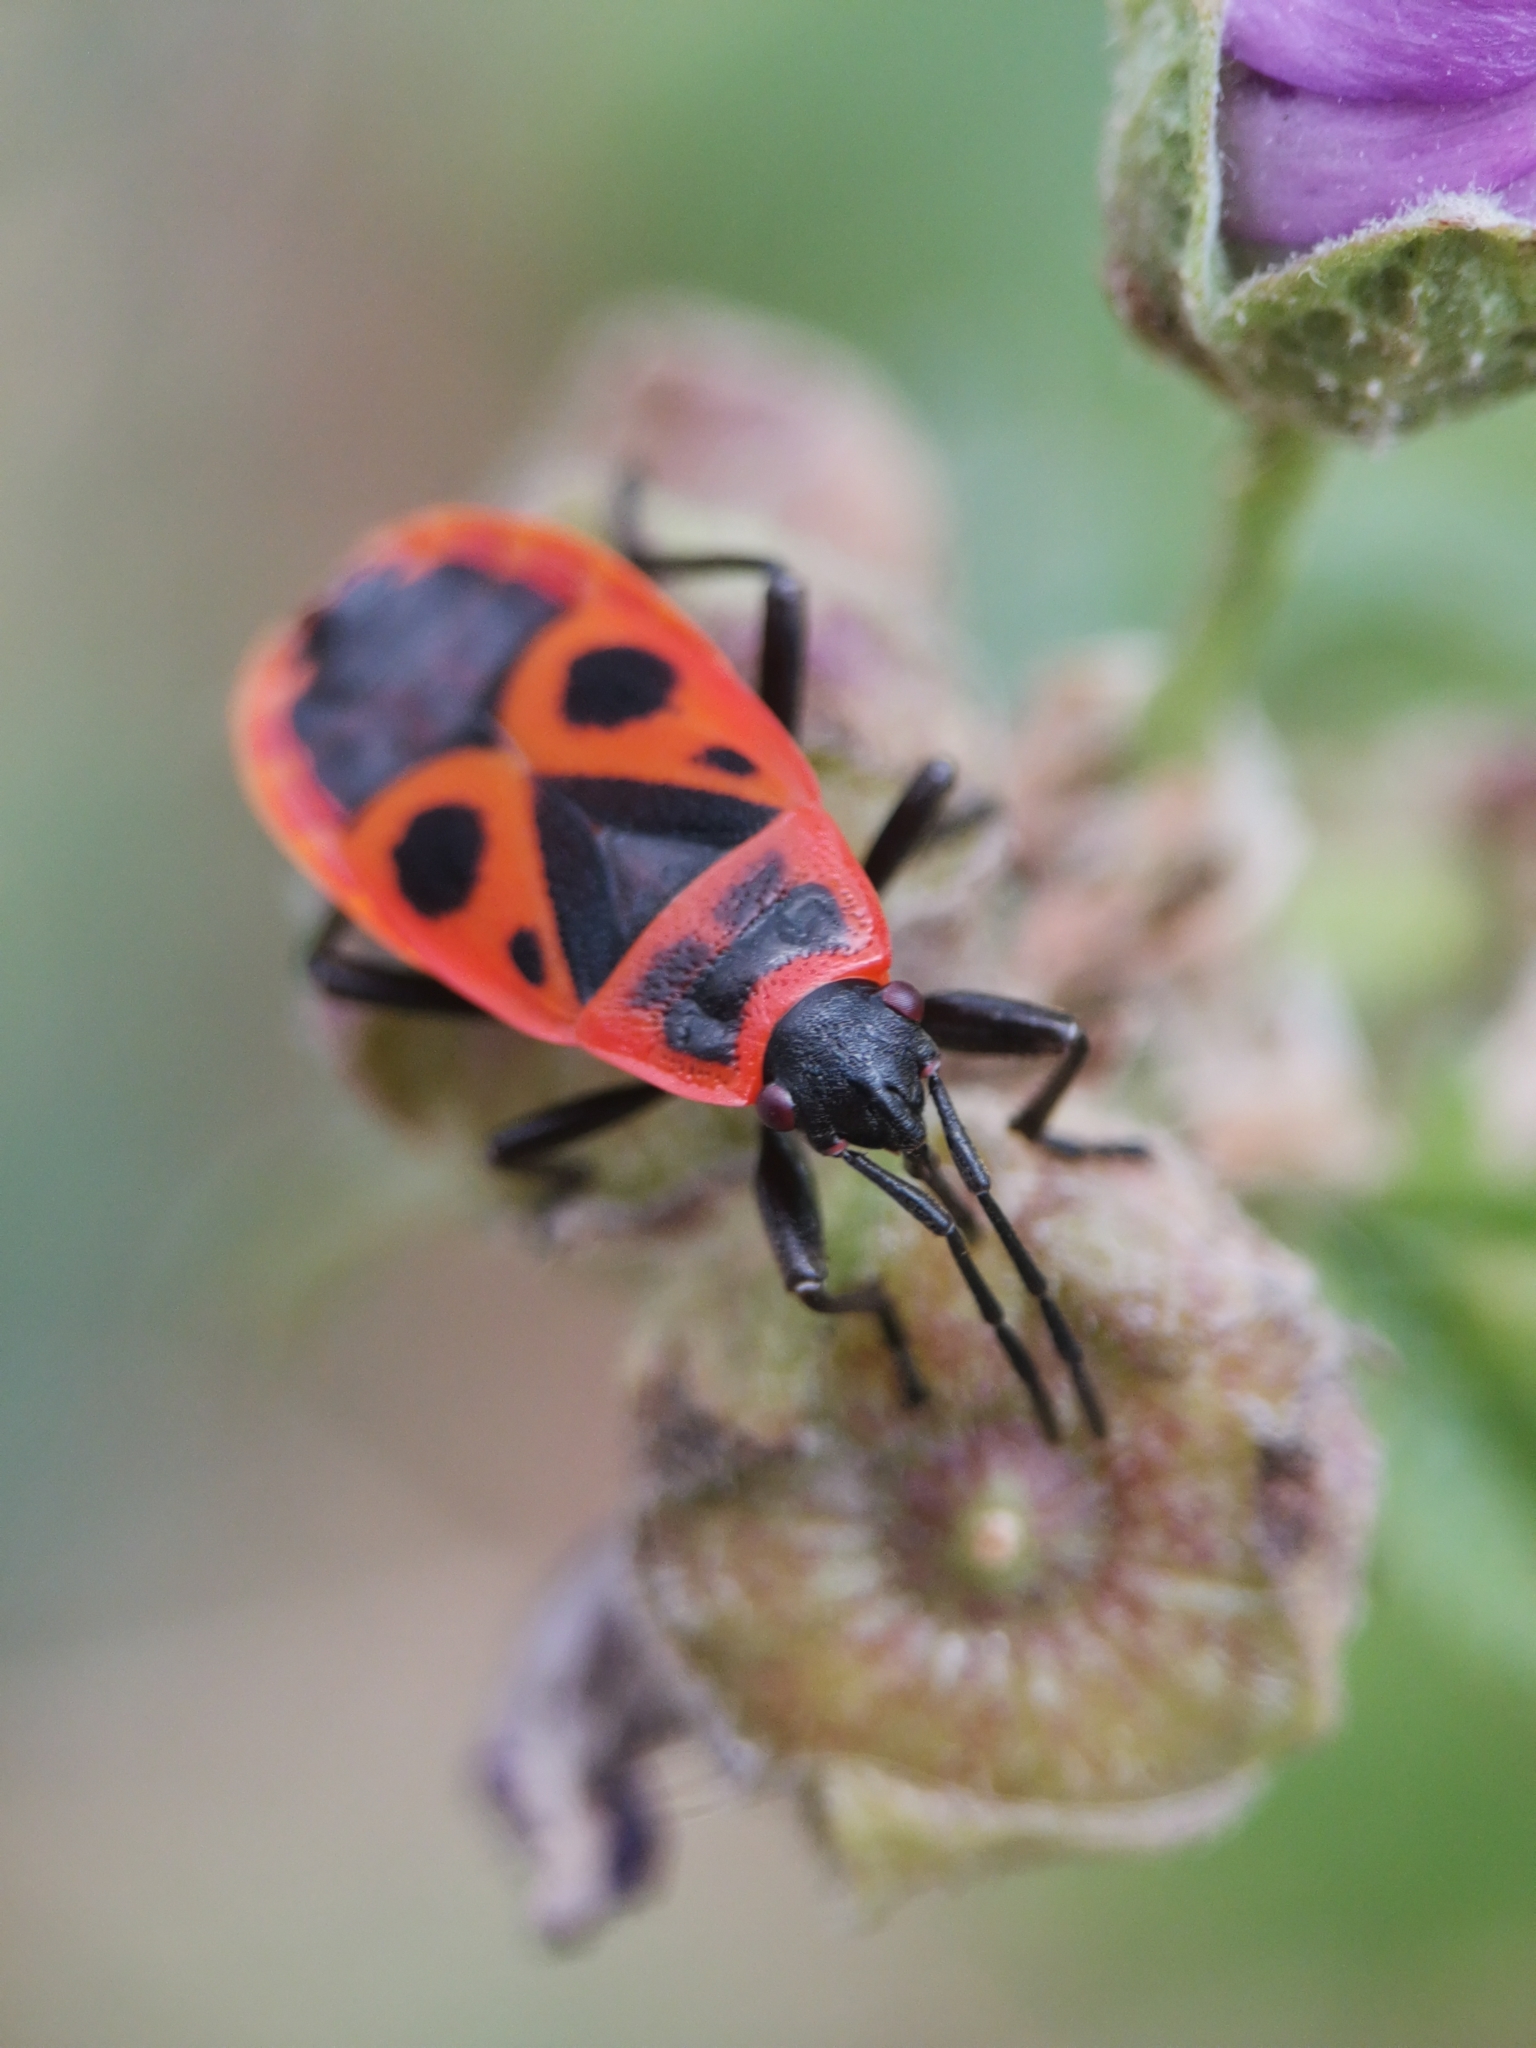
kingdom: Animalia
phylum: Arthropoda
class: Insecta
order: Hemiptera
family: Pyrrhocoridae
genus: Pyrrhocoris
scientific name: Pyrrhocoris apterus
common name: Firebug
